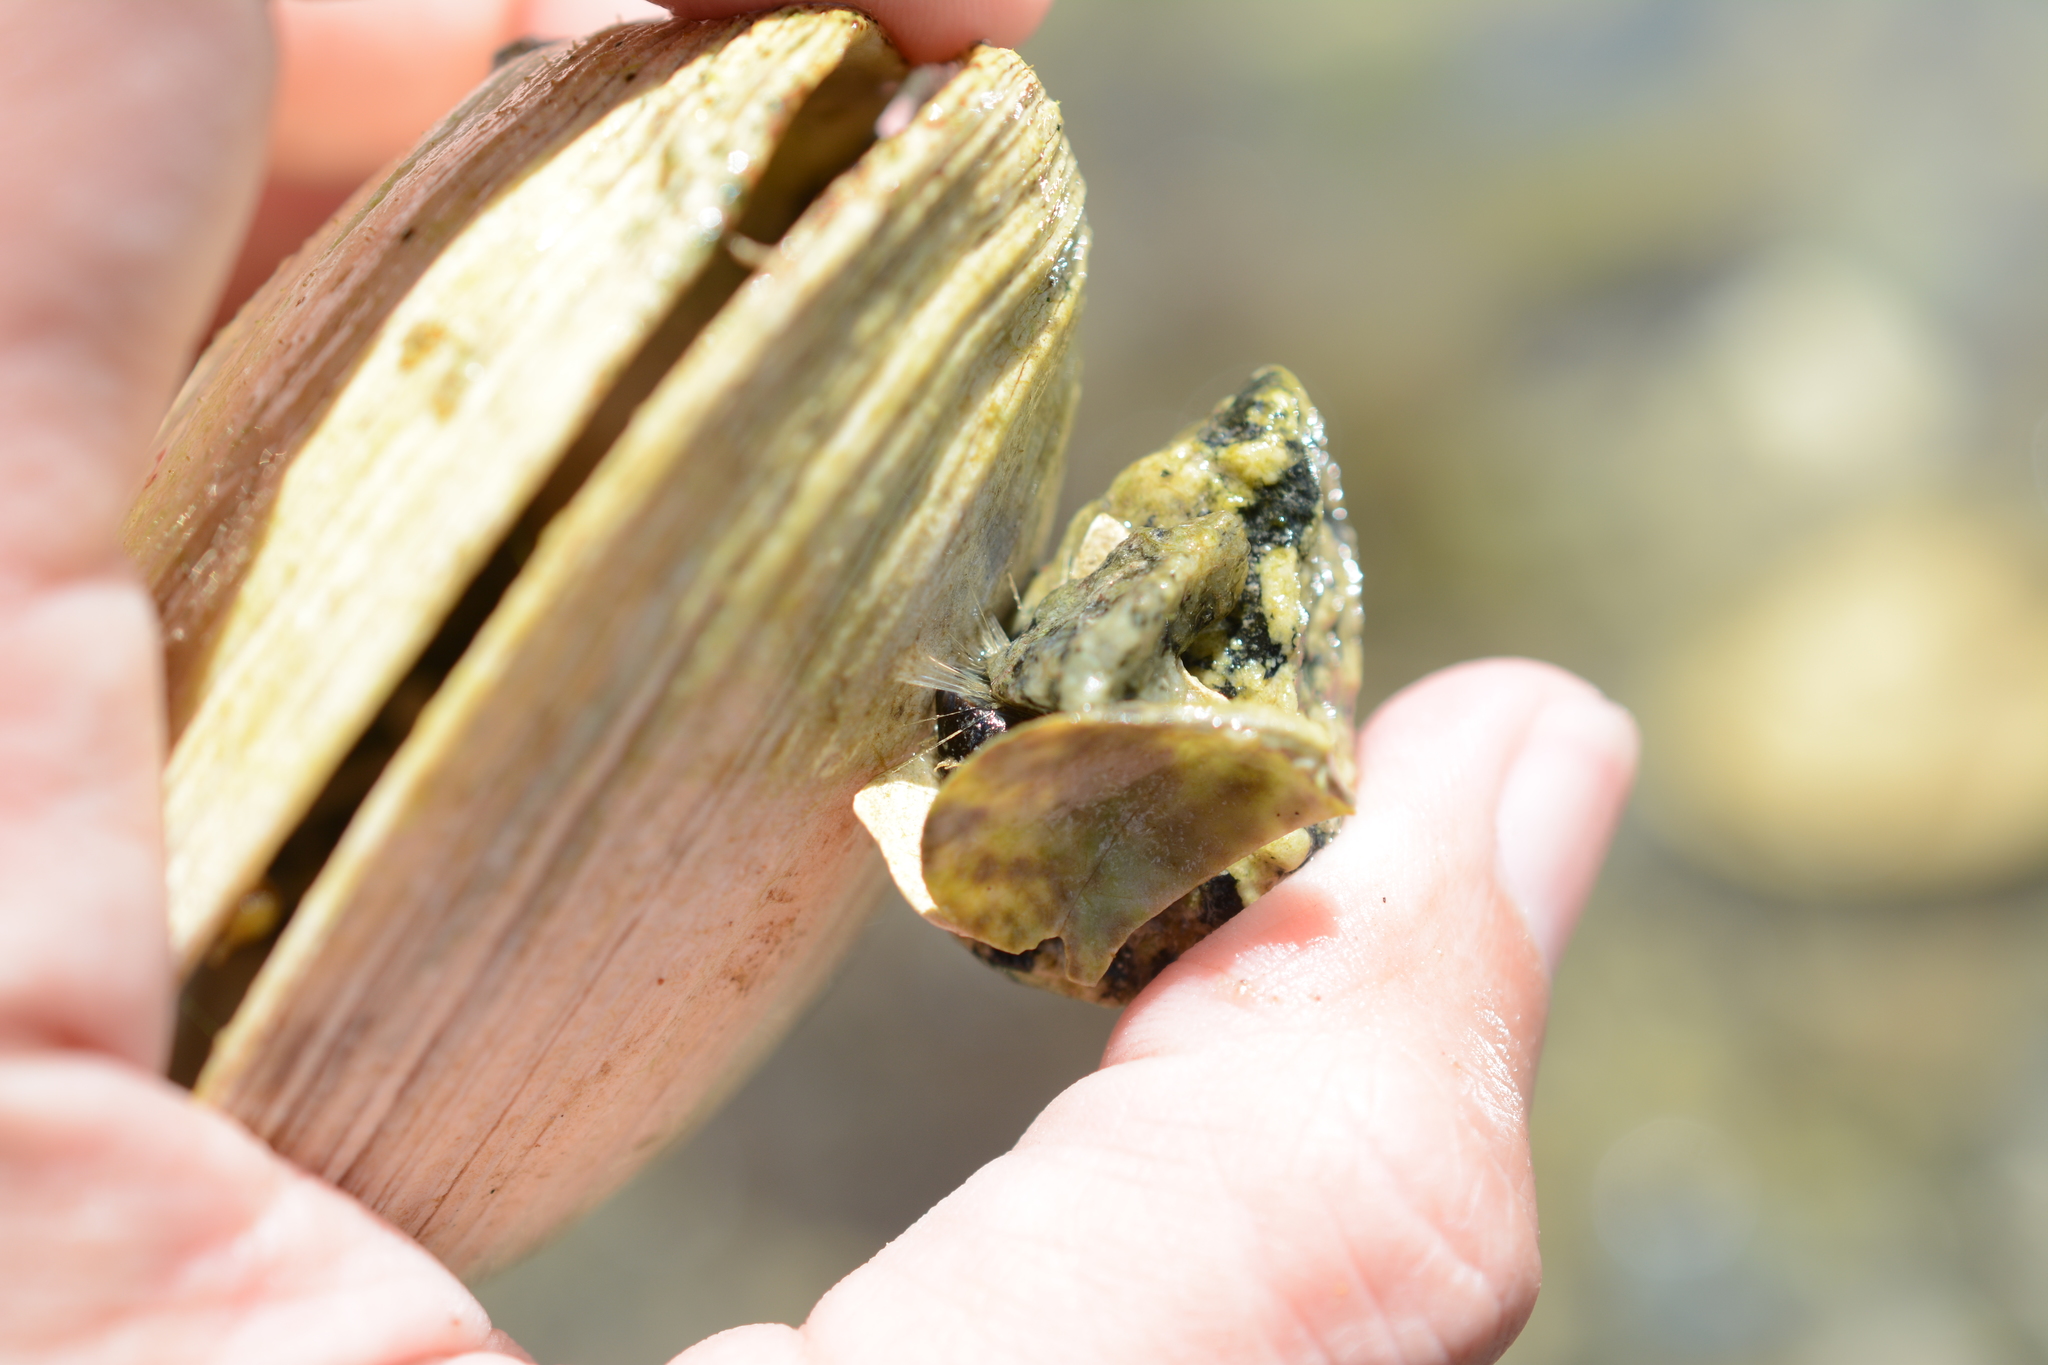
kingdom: Animalia
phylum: Mollusca
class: Bivalvia
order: Mytilida
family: Mytilidae
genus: Mytilus
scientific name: Mytilus
